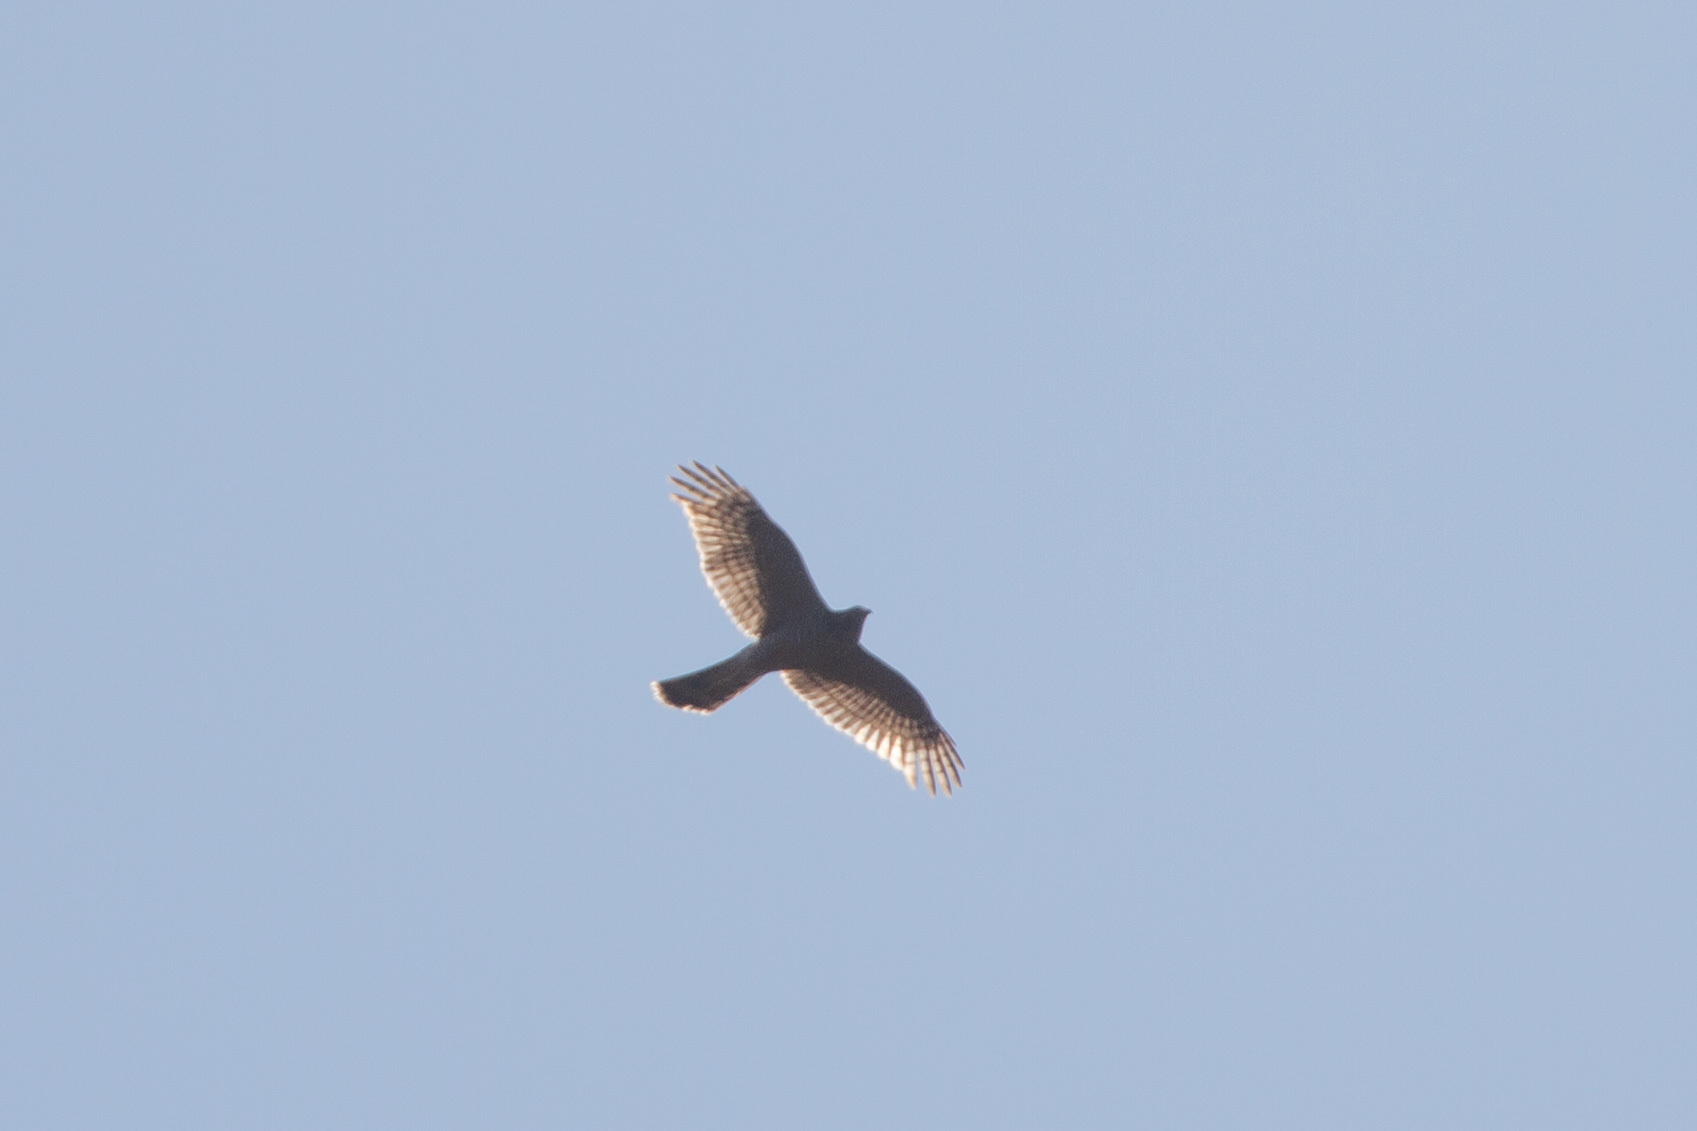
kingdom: Animalia
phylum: Chordata
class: Aves
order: Accipitriformes
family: Accipitridae
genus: Accipiter
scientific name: Accipiter nisus
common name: Eurasian sparrowhawk
